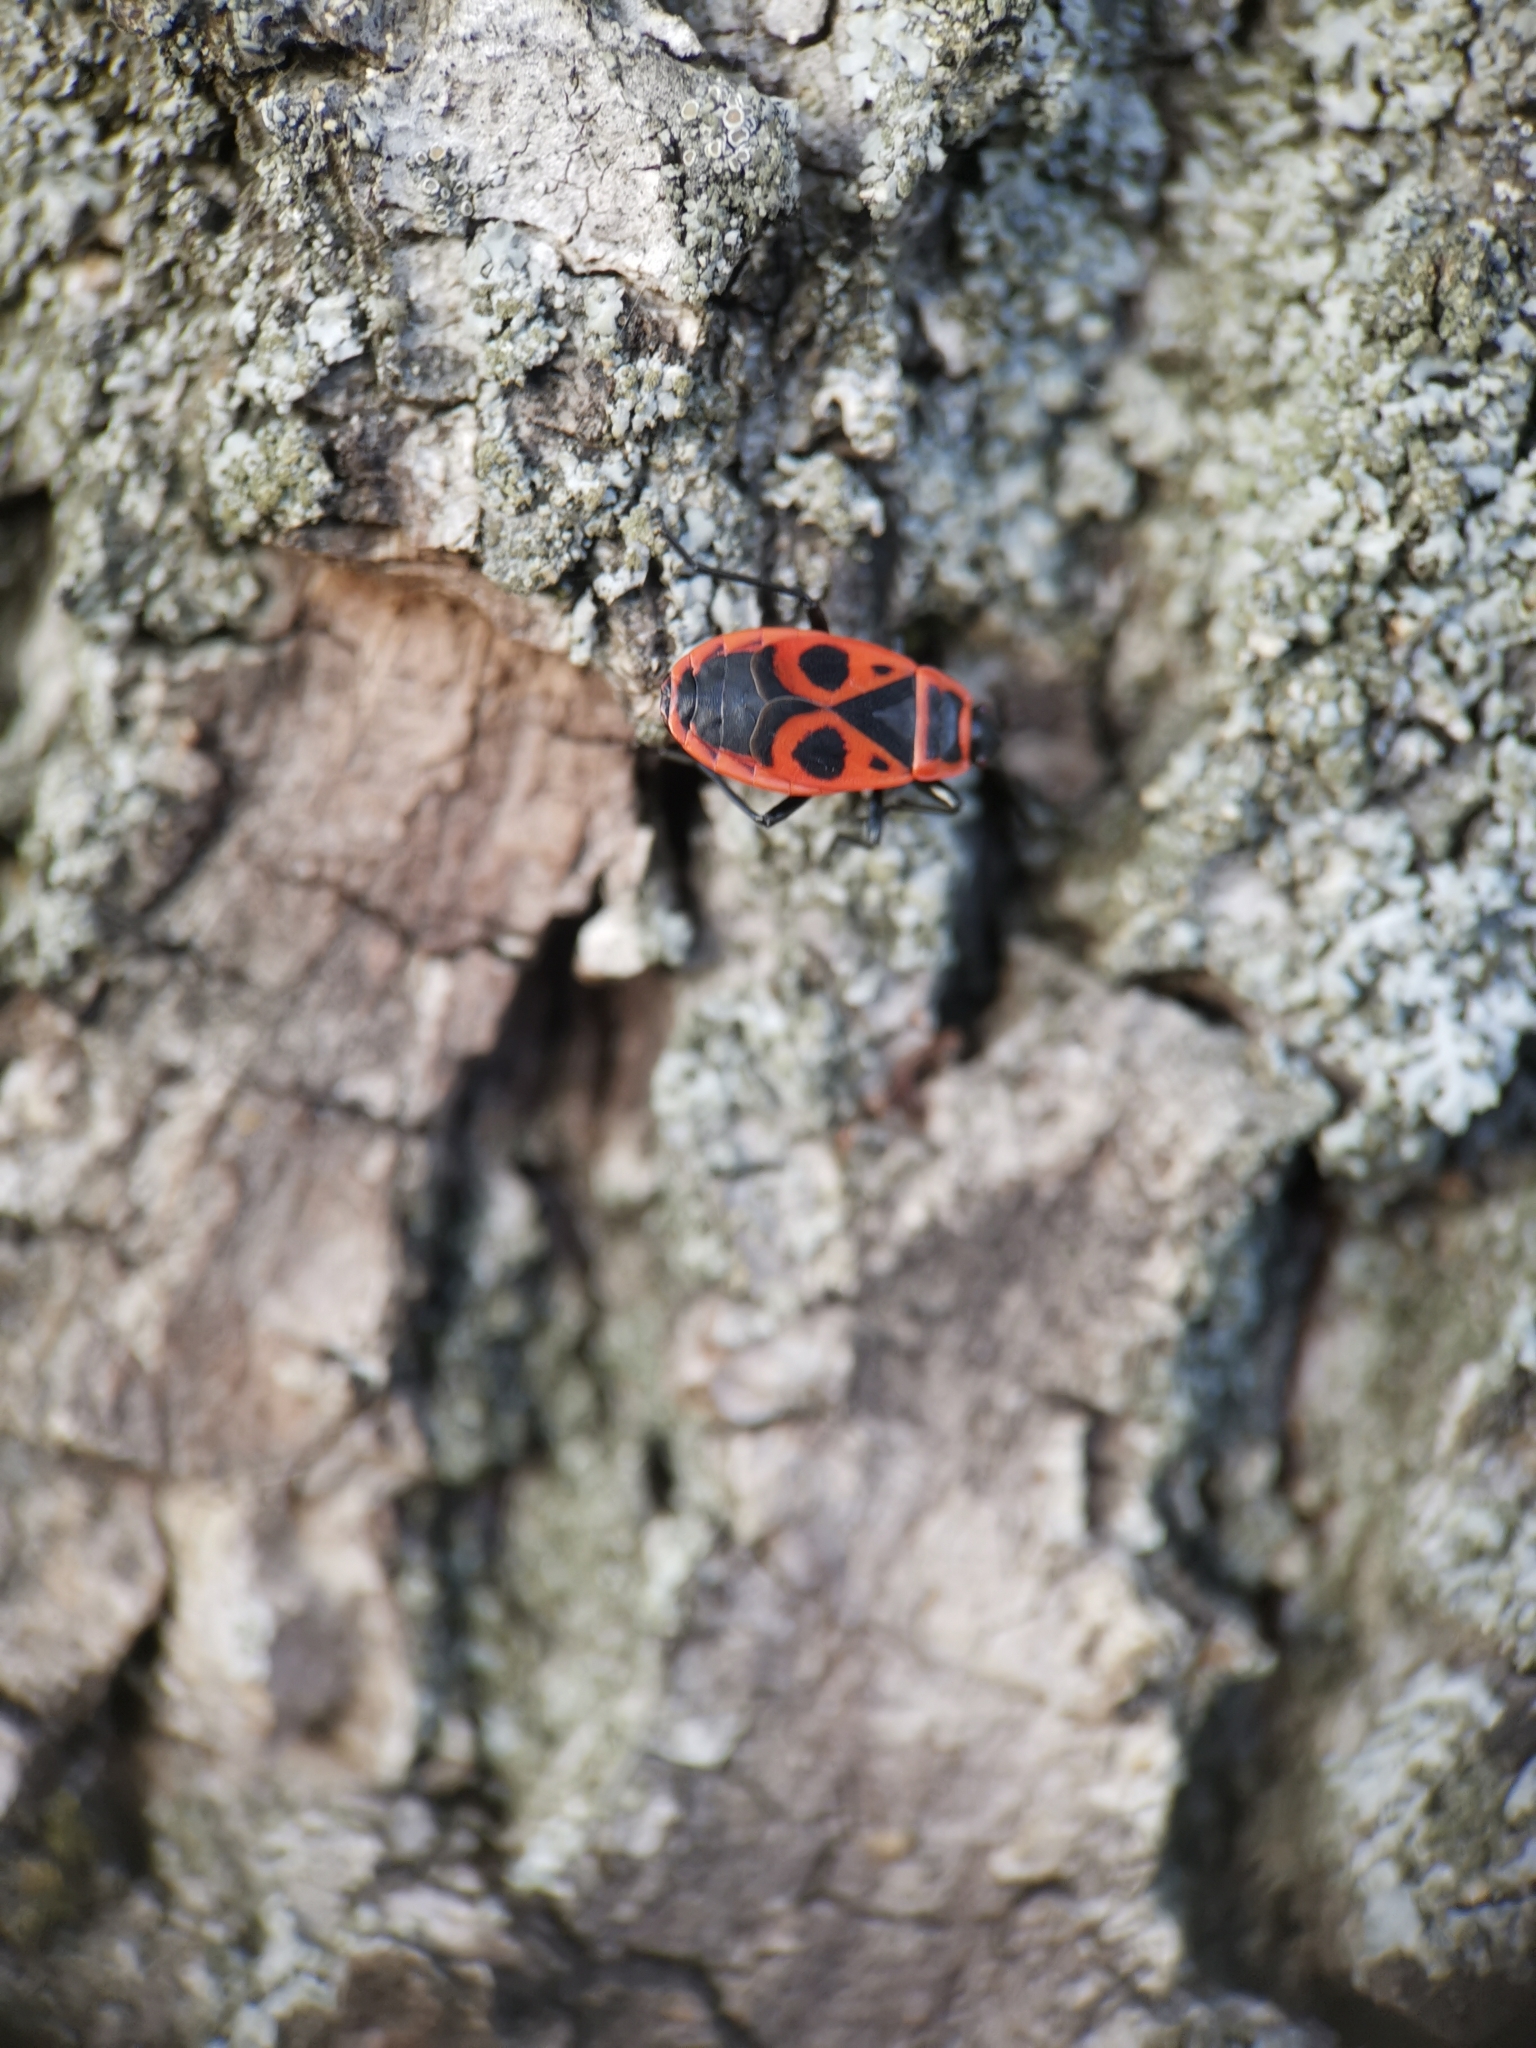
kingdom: Animalia
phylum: Arthropoda
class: Insecta
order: Hemiptera
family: Pyrrhocoridae
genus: Pyrrhocoris
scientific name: Pyrrhocoris apterus
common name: Firebug
